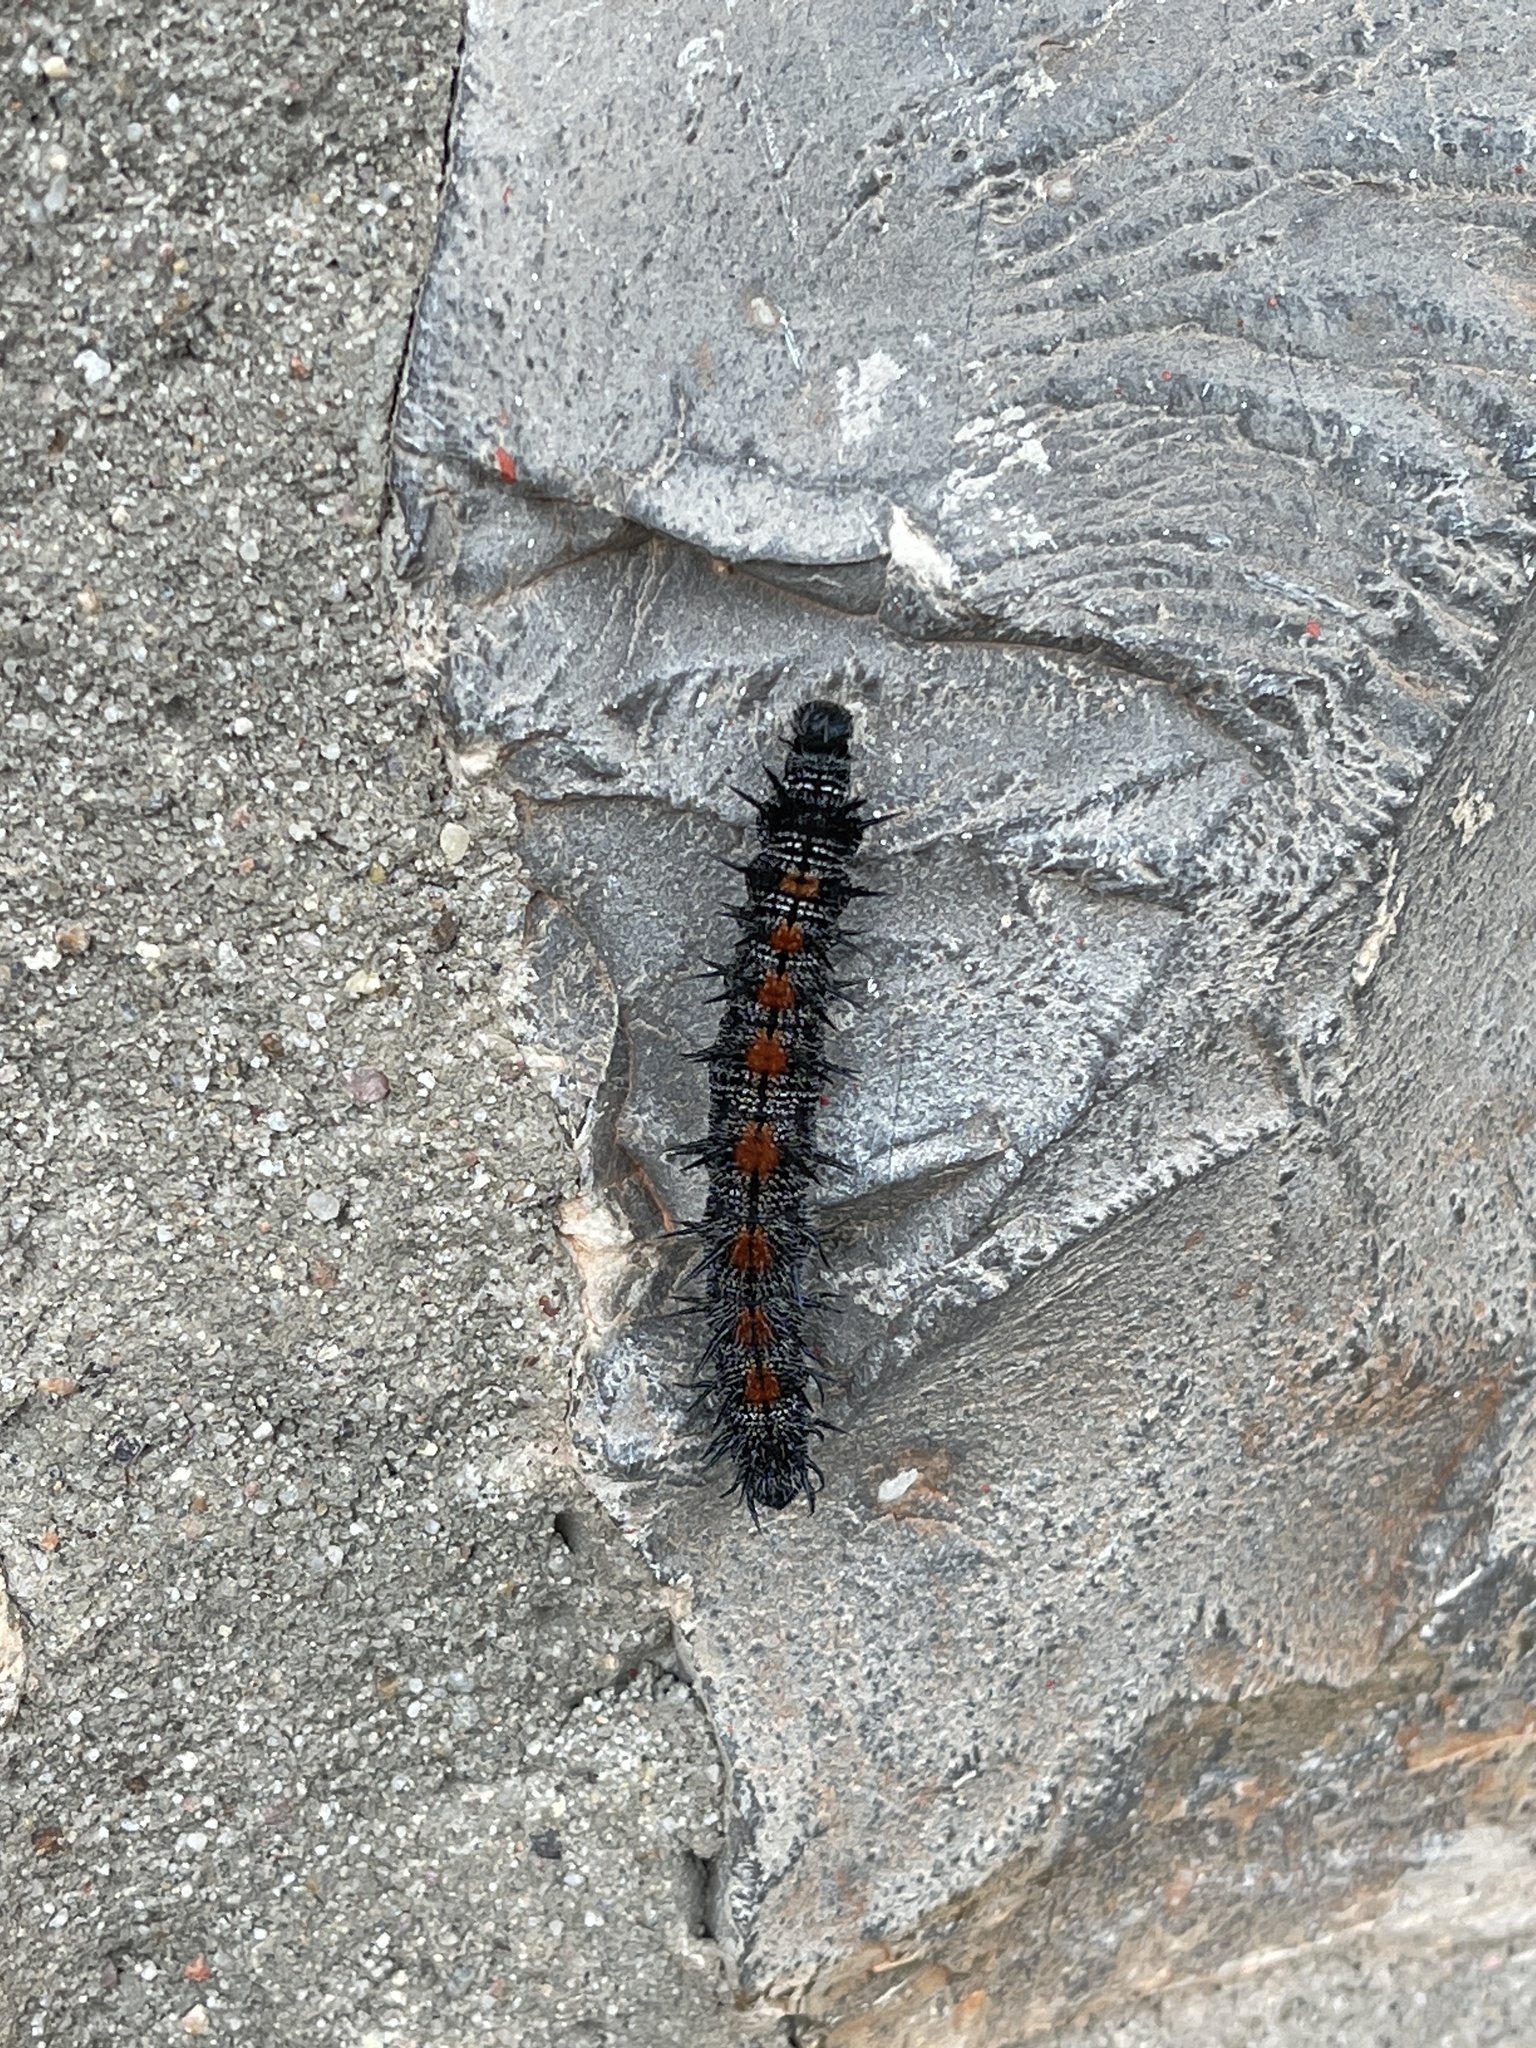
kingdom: Animalia
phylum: Arthropoda
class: Insecta
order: Lepidoptera
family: Nymphalidae
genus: Nymphalis
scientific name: Nymphalis antiopa
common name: Camberwell beauty
